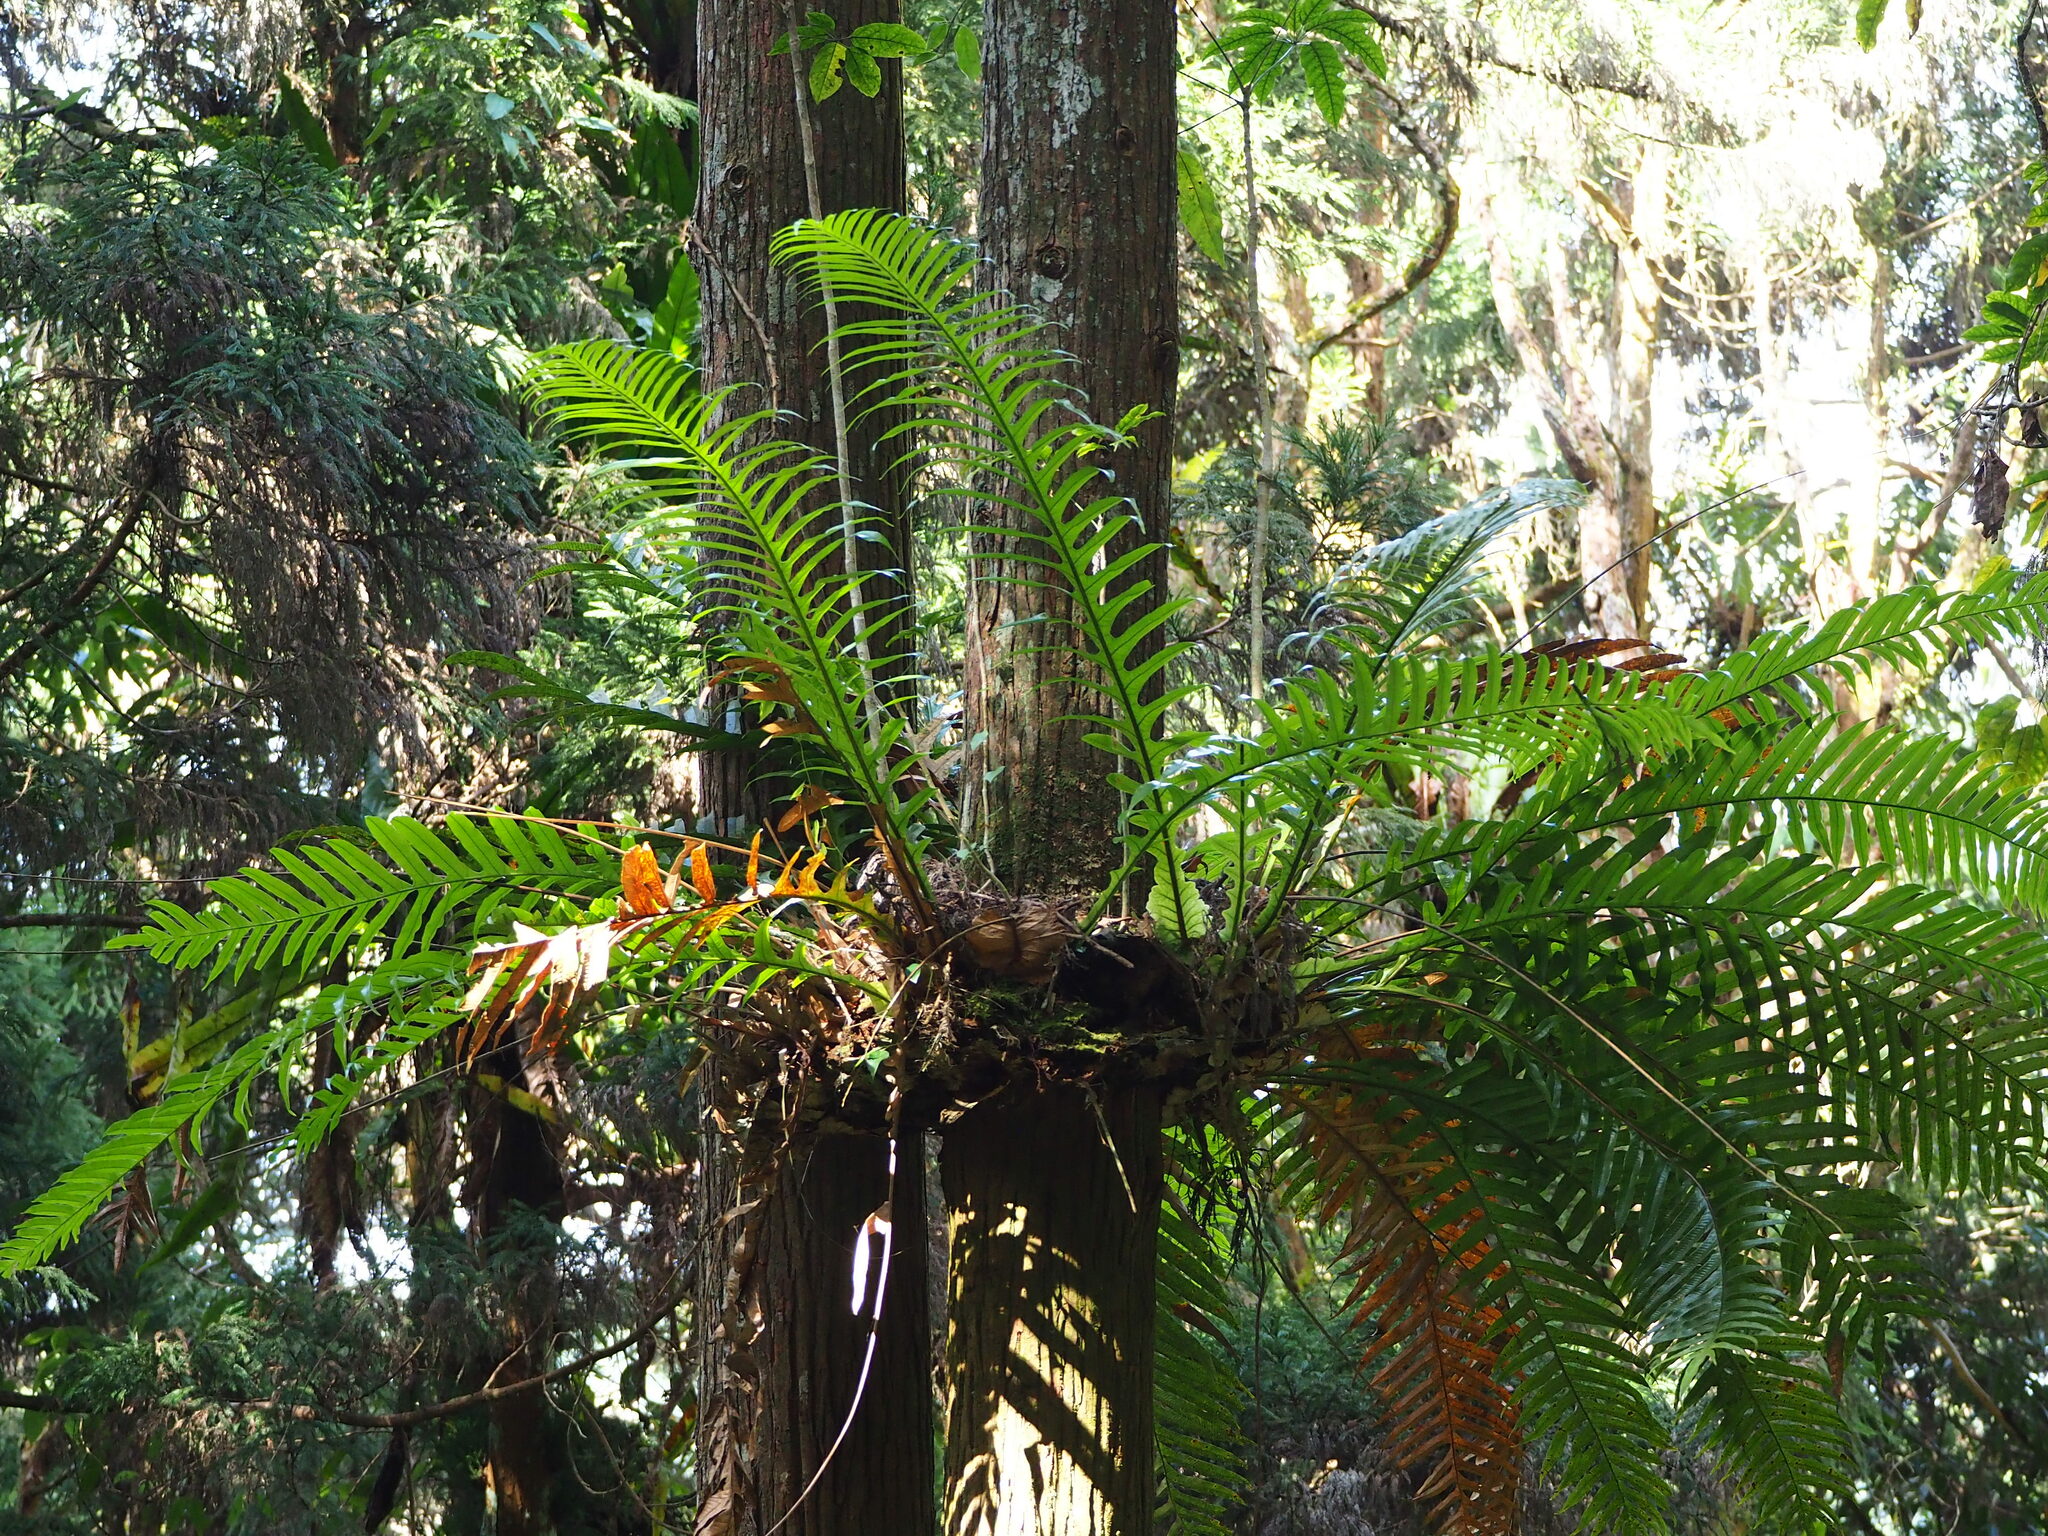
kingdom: Plantae
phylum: Tracheophyta
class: Polypodiopsida
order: Polypodiales
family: Polypodiaceae
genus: Drynaria
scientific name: Drynaria coronans
